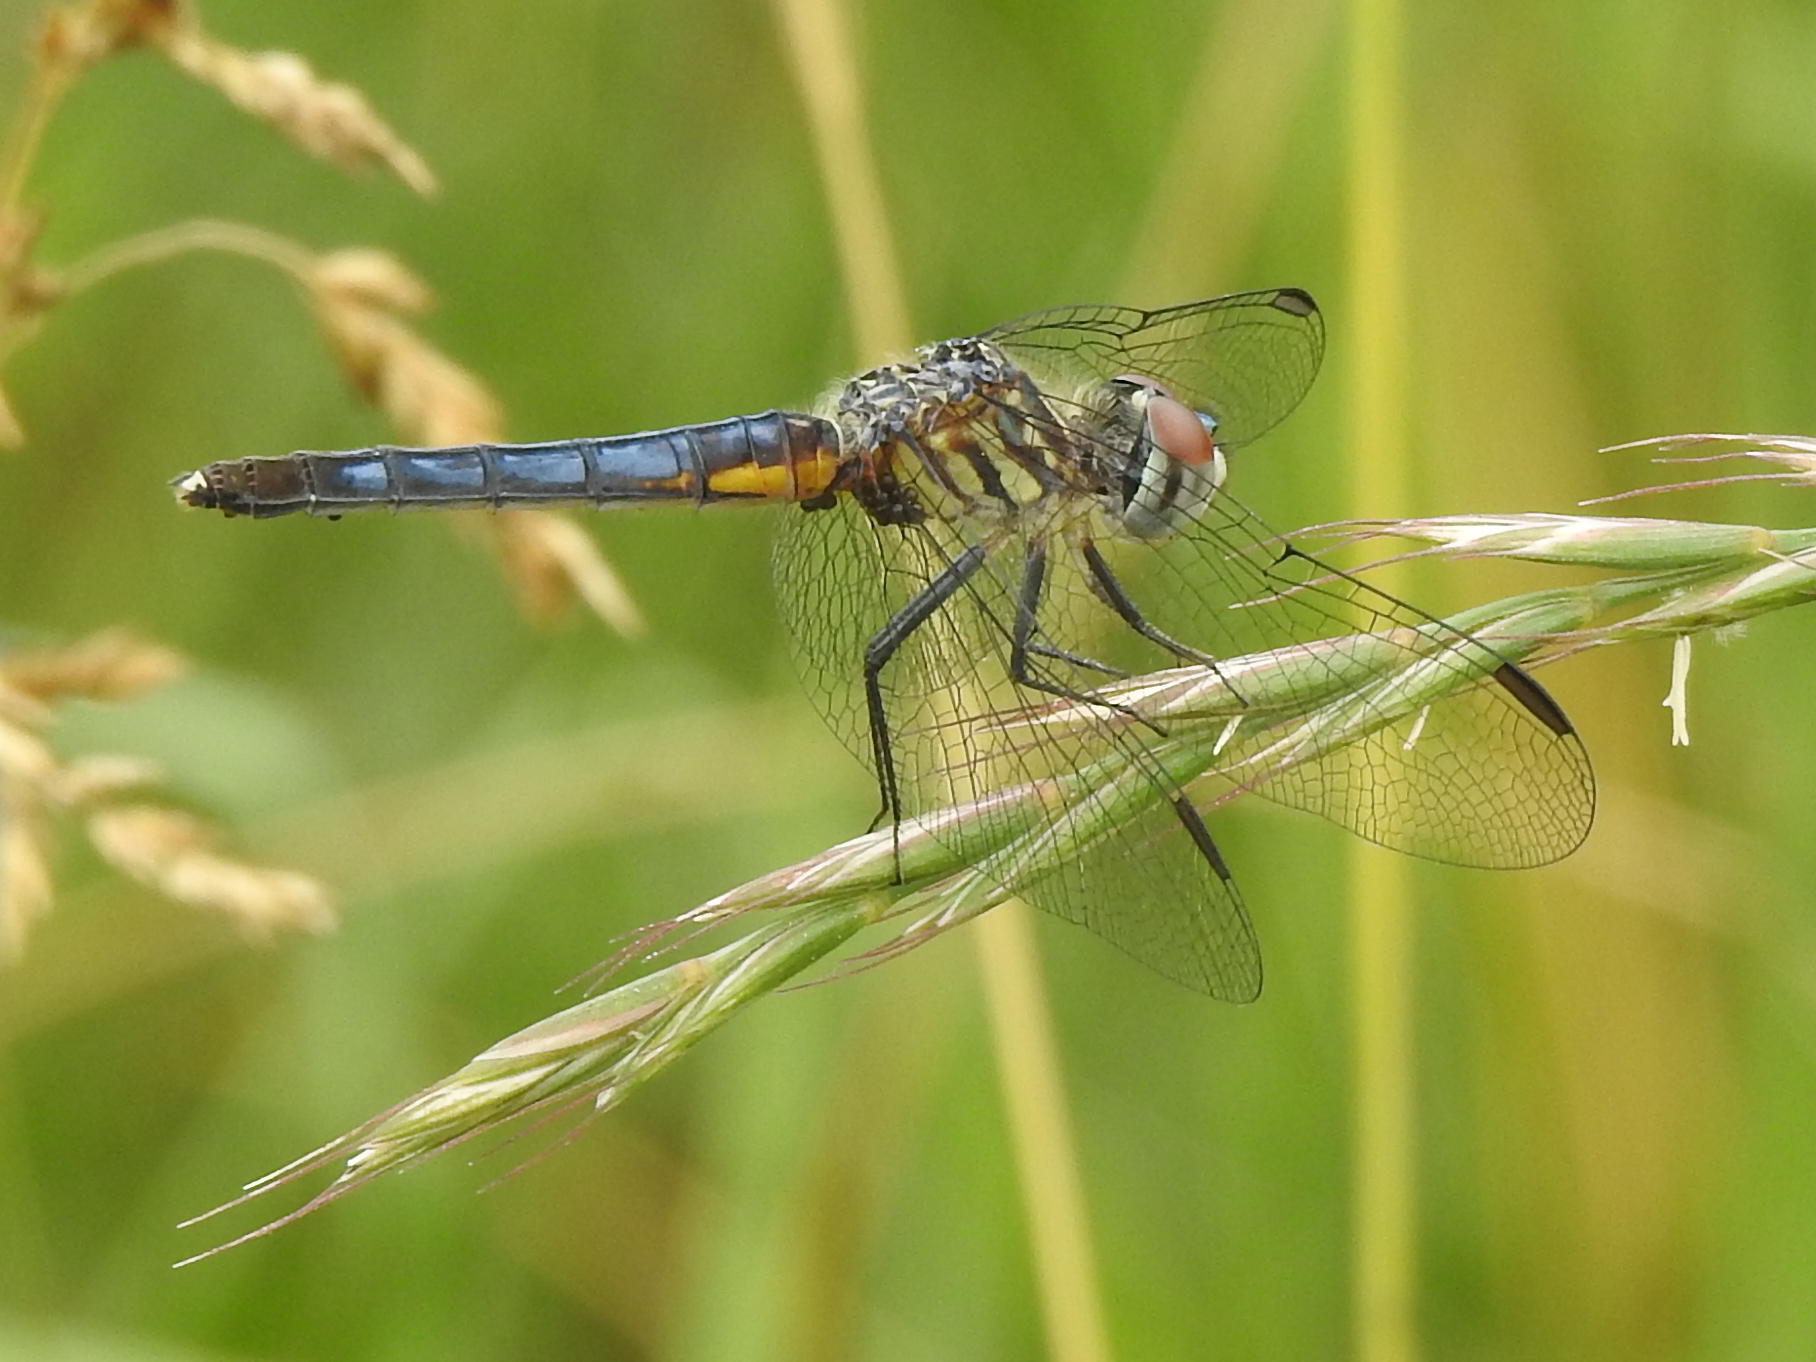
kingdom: Animalia
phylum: Arthropoda
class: Insecta
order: Odonata
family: Libellulidae
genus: Pachydiplax
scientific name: Pachydiplax longipennis
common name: Blue dasher
